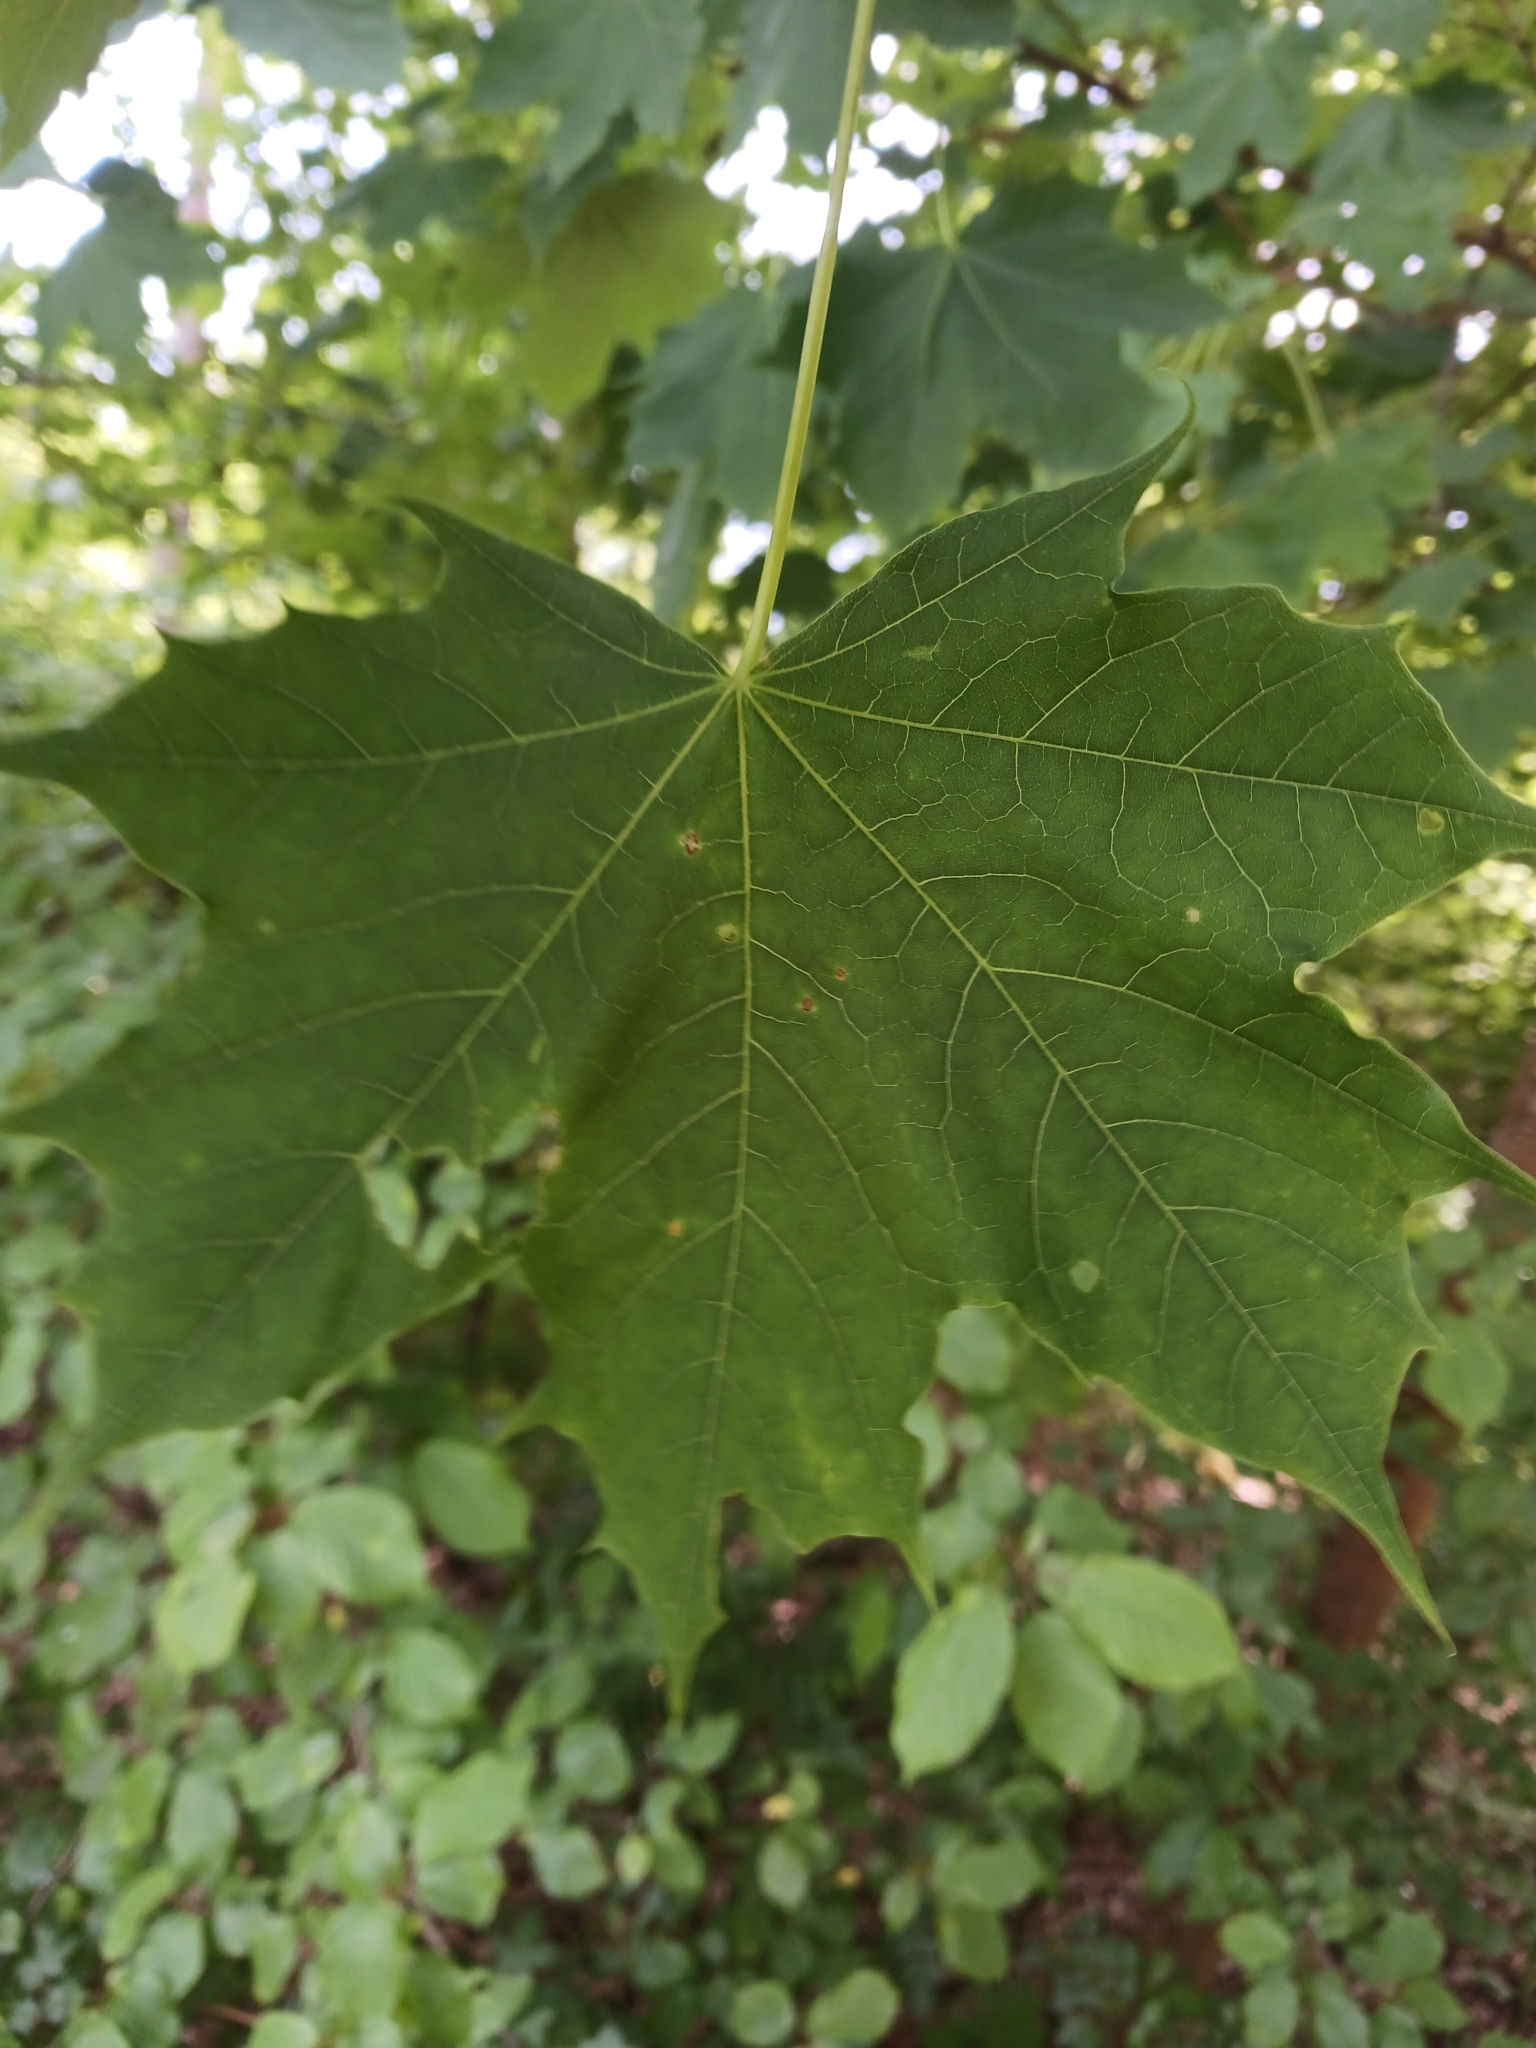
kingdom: Plantae
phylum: Tracheophyta
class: Magnoliopsida
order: Sapindales
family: Sapindaceae
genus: Acer
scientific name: Acer platanoides
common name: Norway maple
